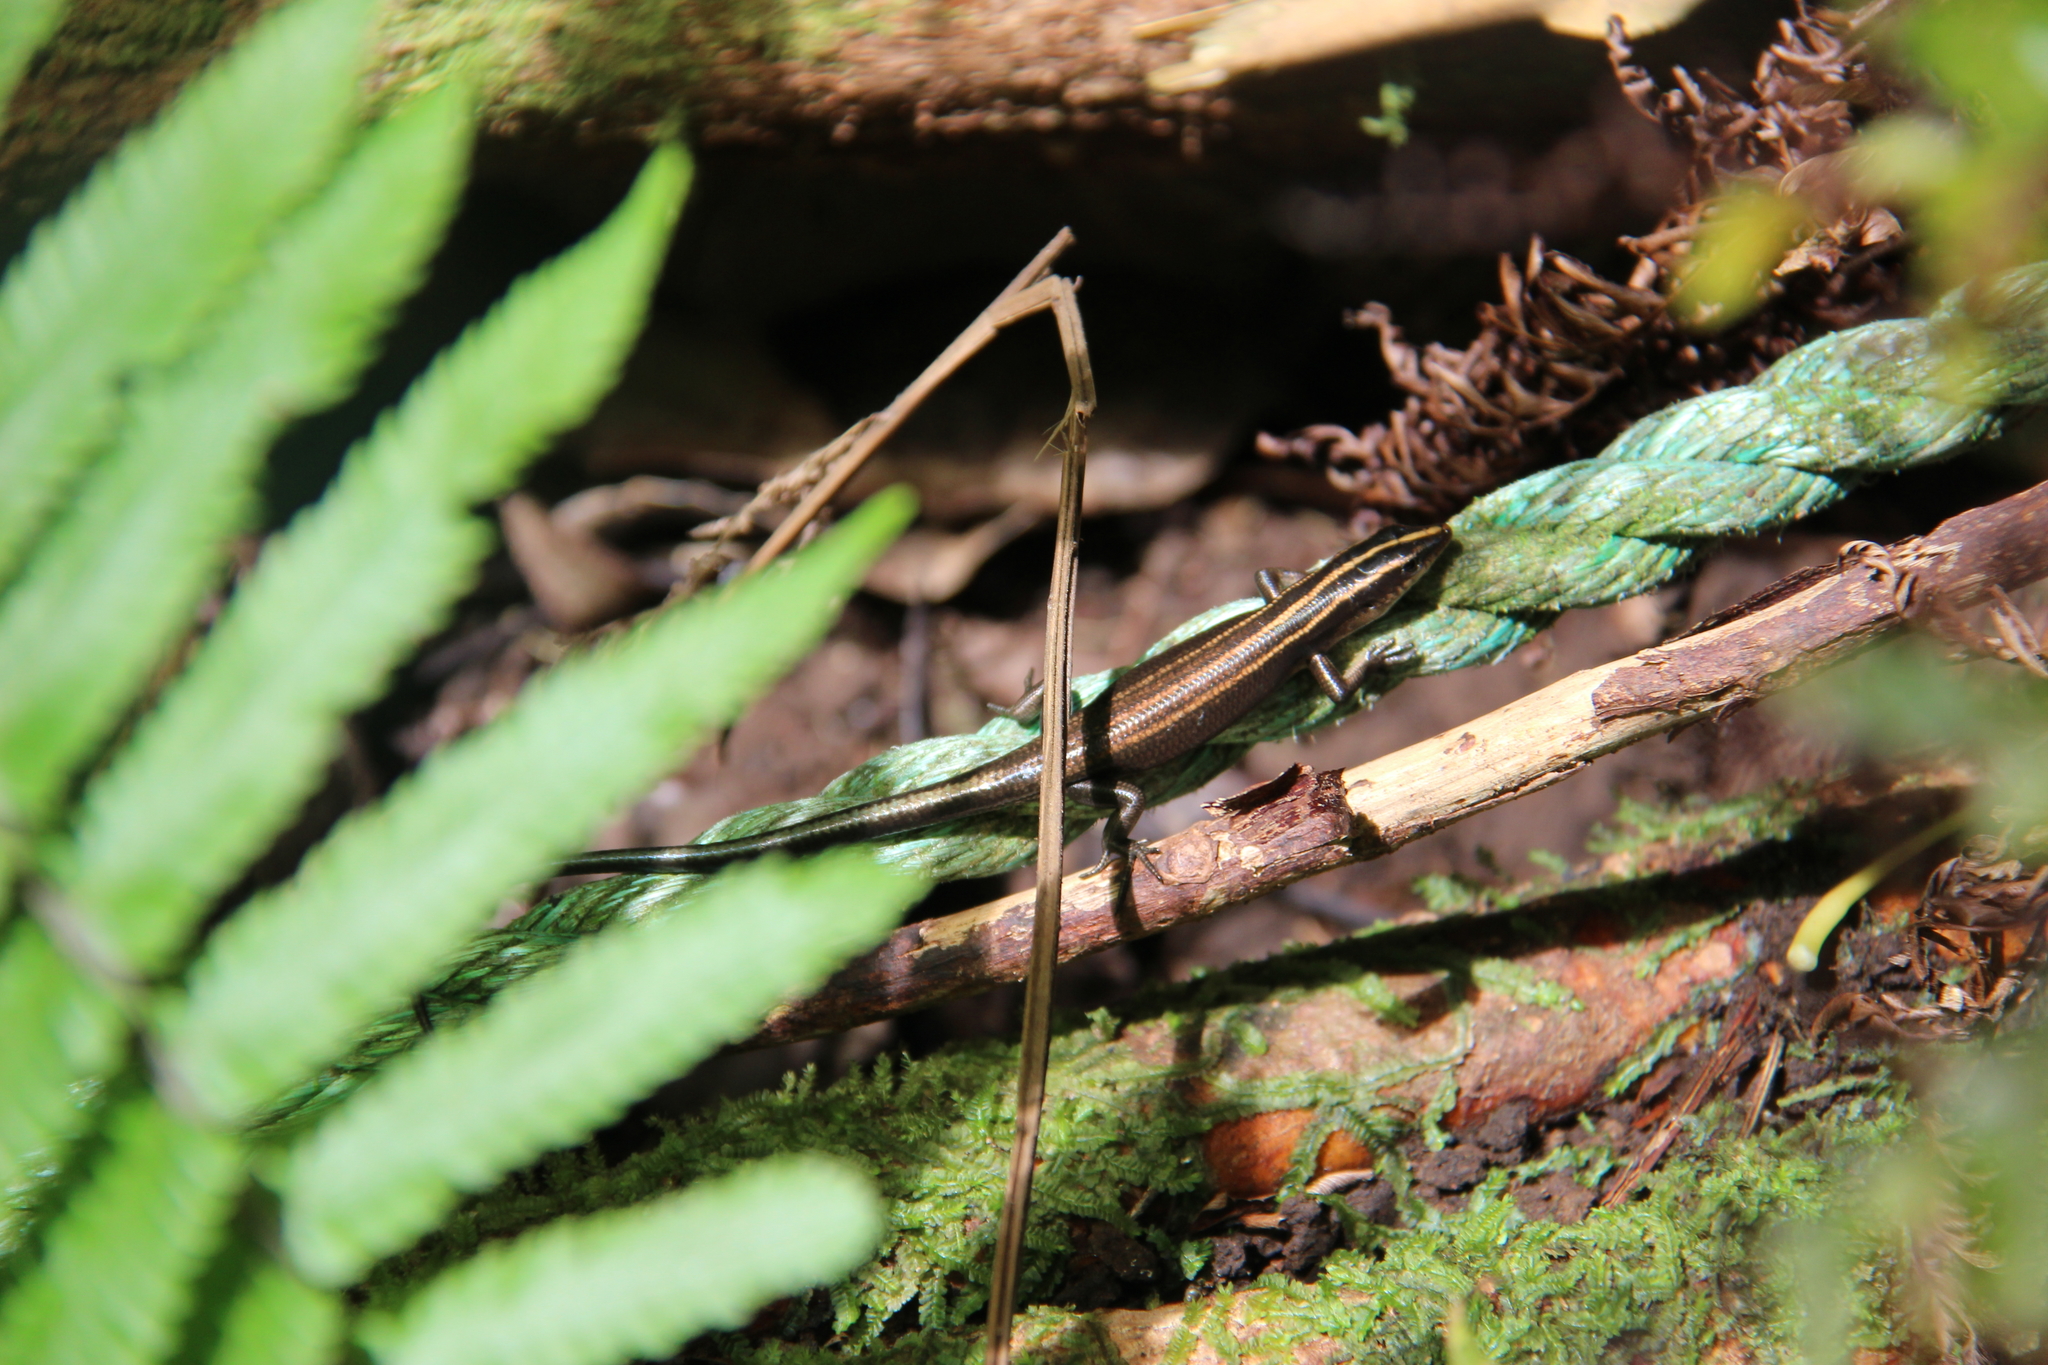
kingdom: Animalia
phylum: Chordata
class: Squamata
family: Scincidae
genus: Emoia
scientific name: Emoia impar
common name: Azure-tailed skink
